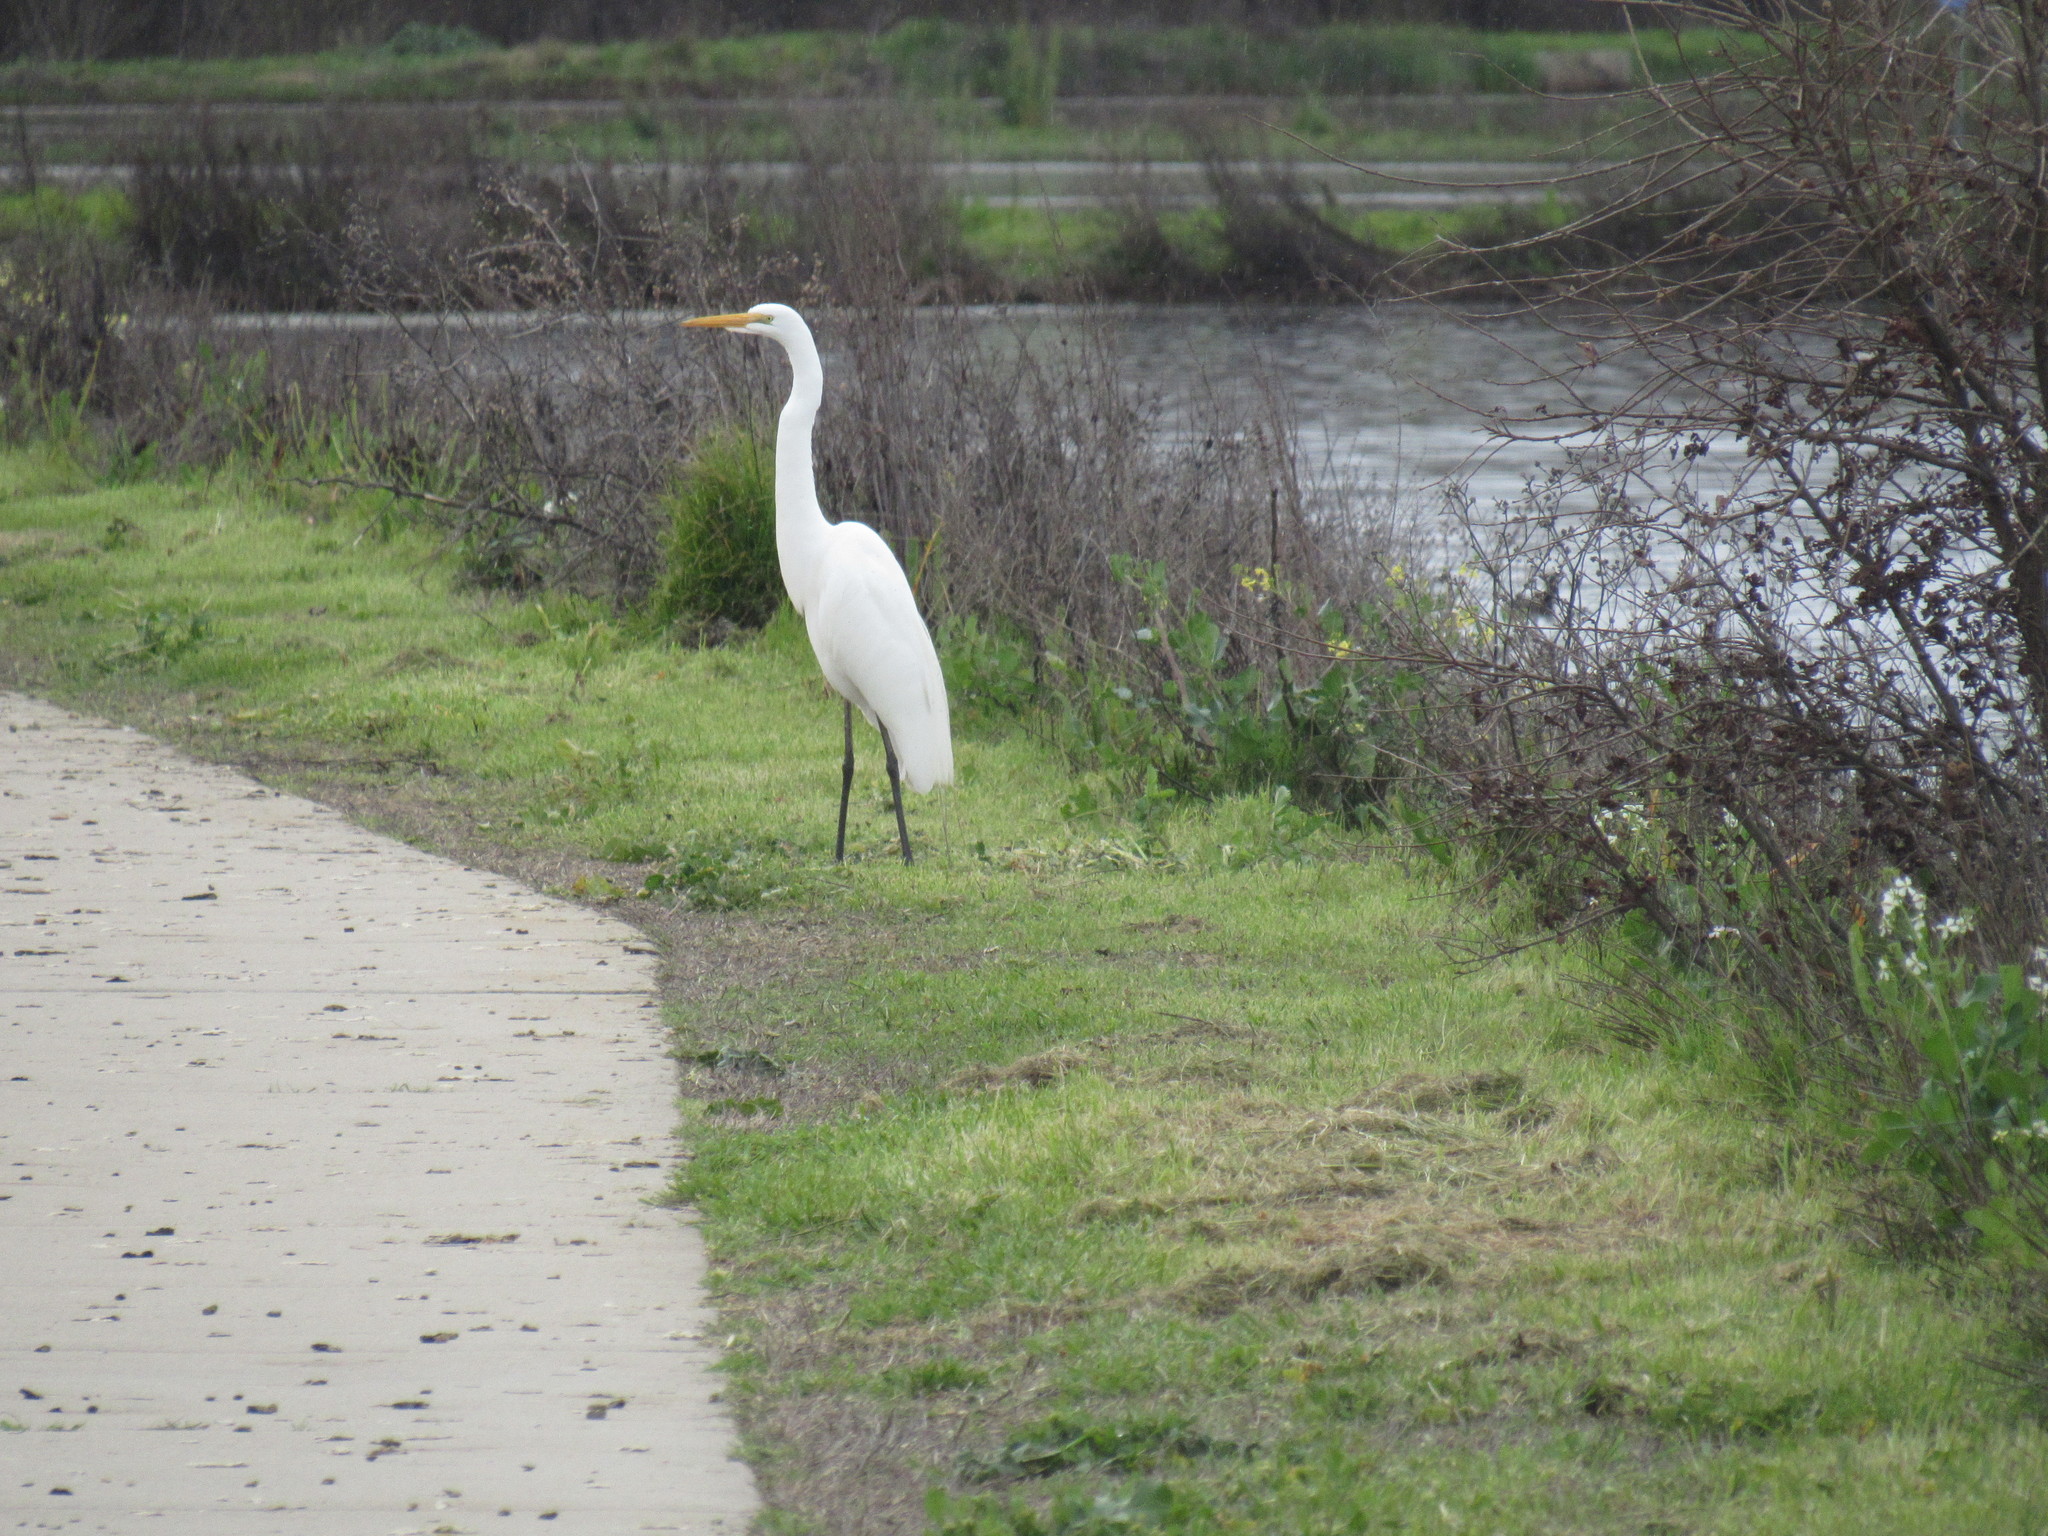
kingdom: Animalia
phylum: Chordata
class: Aves
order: Pelecaniformes
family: Ardeidae
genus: Ardea
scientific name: Ardea alba
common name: Great egret
